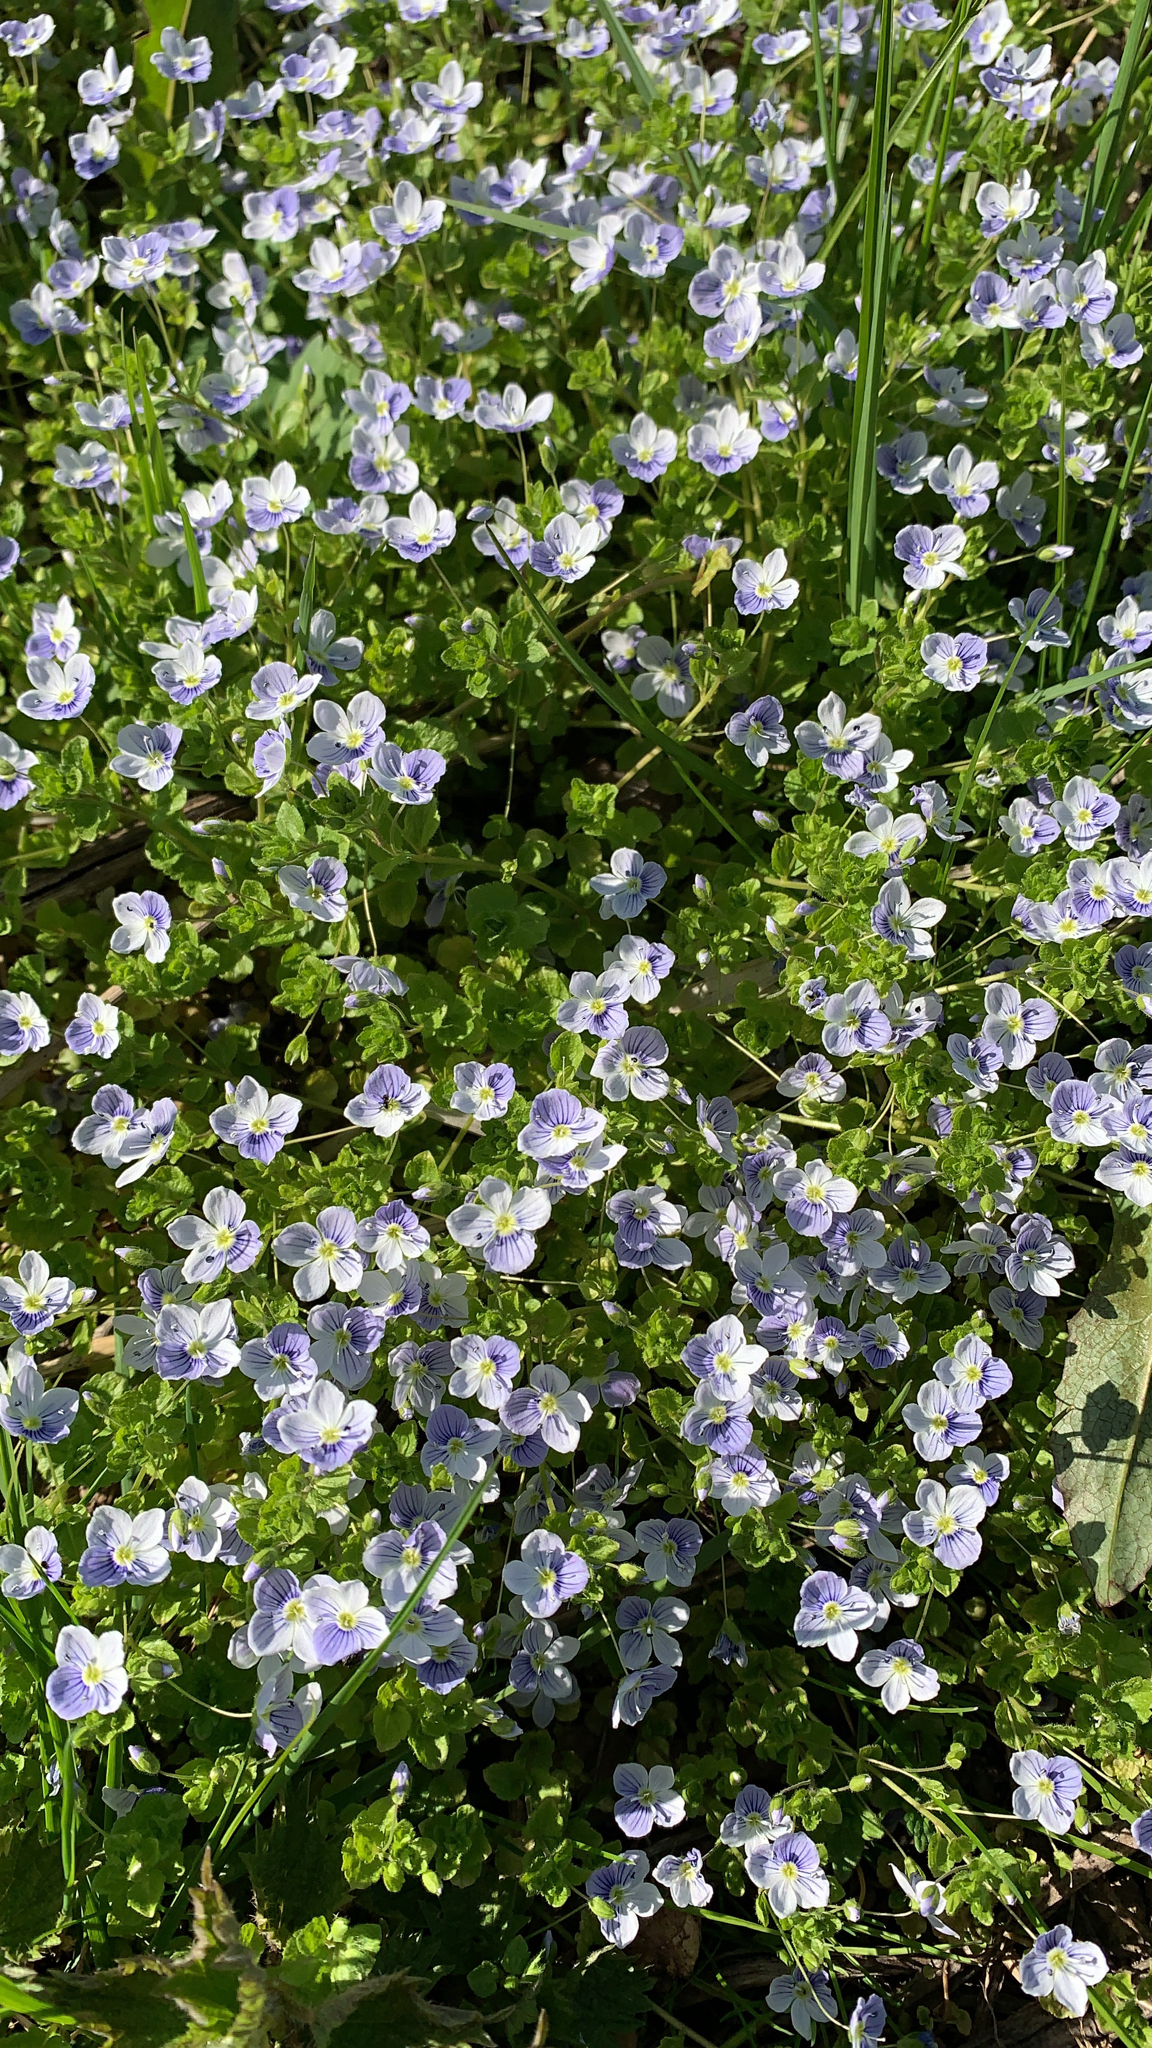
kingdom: Plantae
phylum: Tracheophyta
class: Magnoliopsida
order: Lamiales
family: Plantaginaceae
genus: Veronica
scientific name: Veronica filiformis
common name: Slender speedwell
